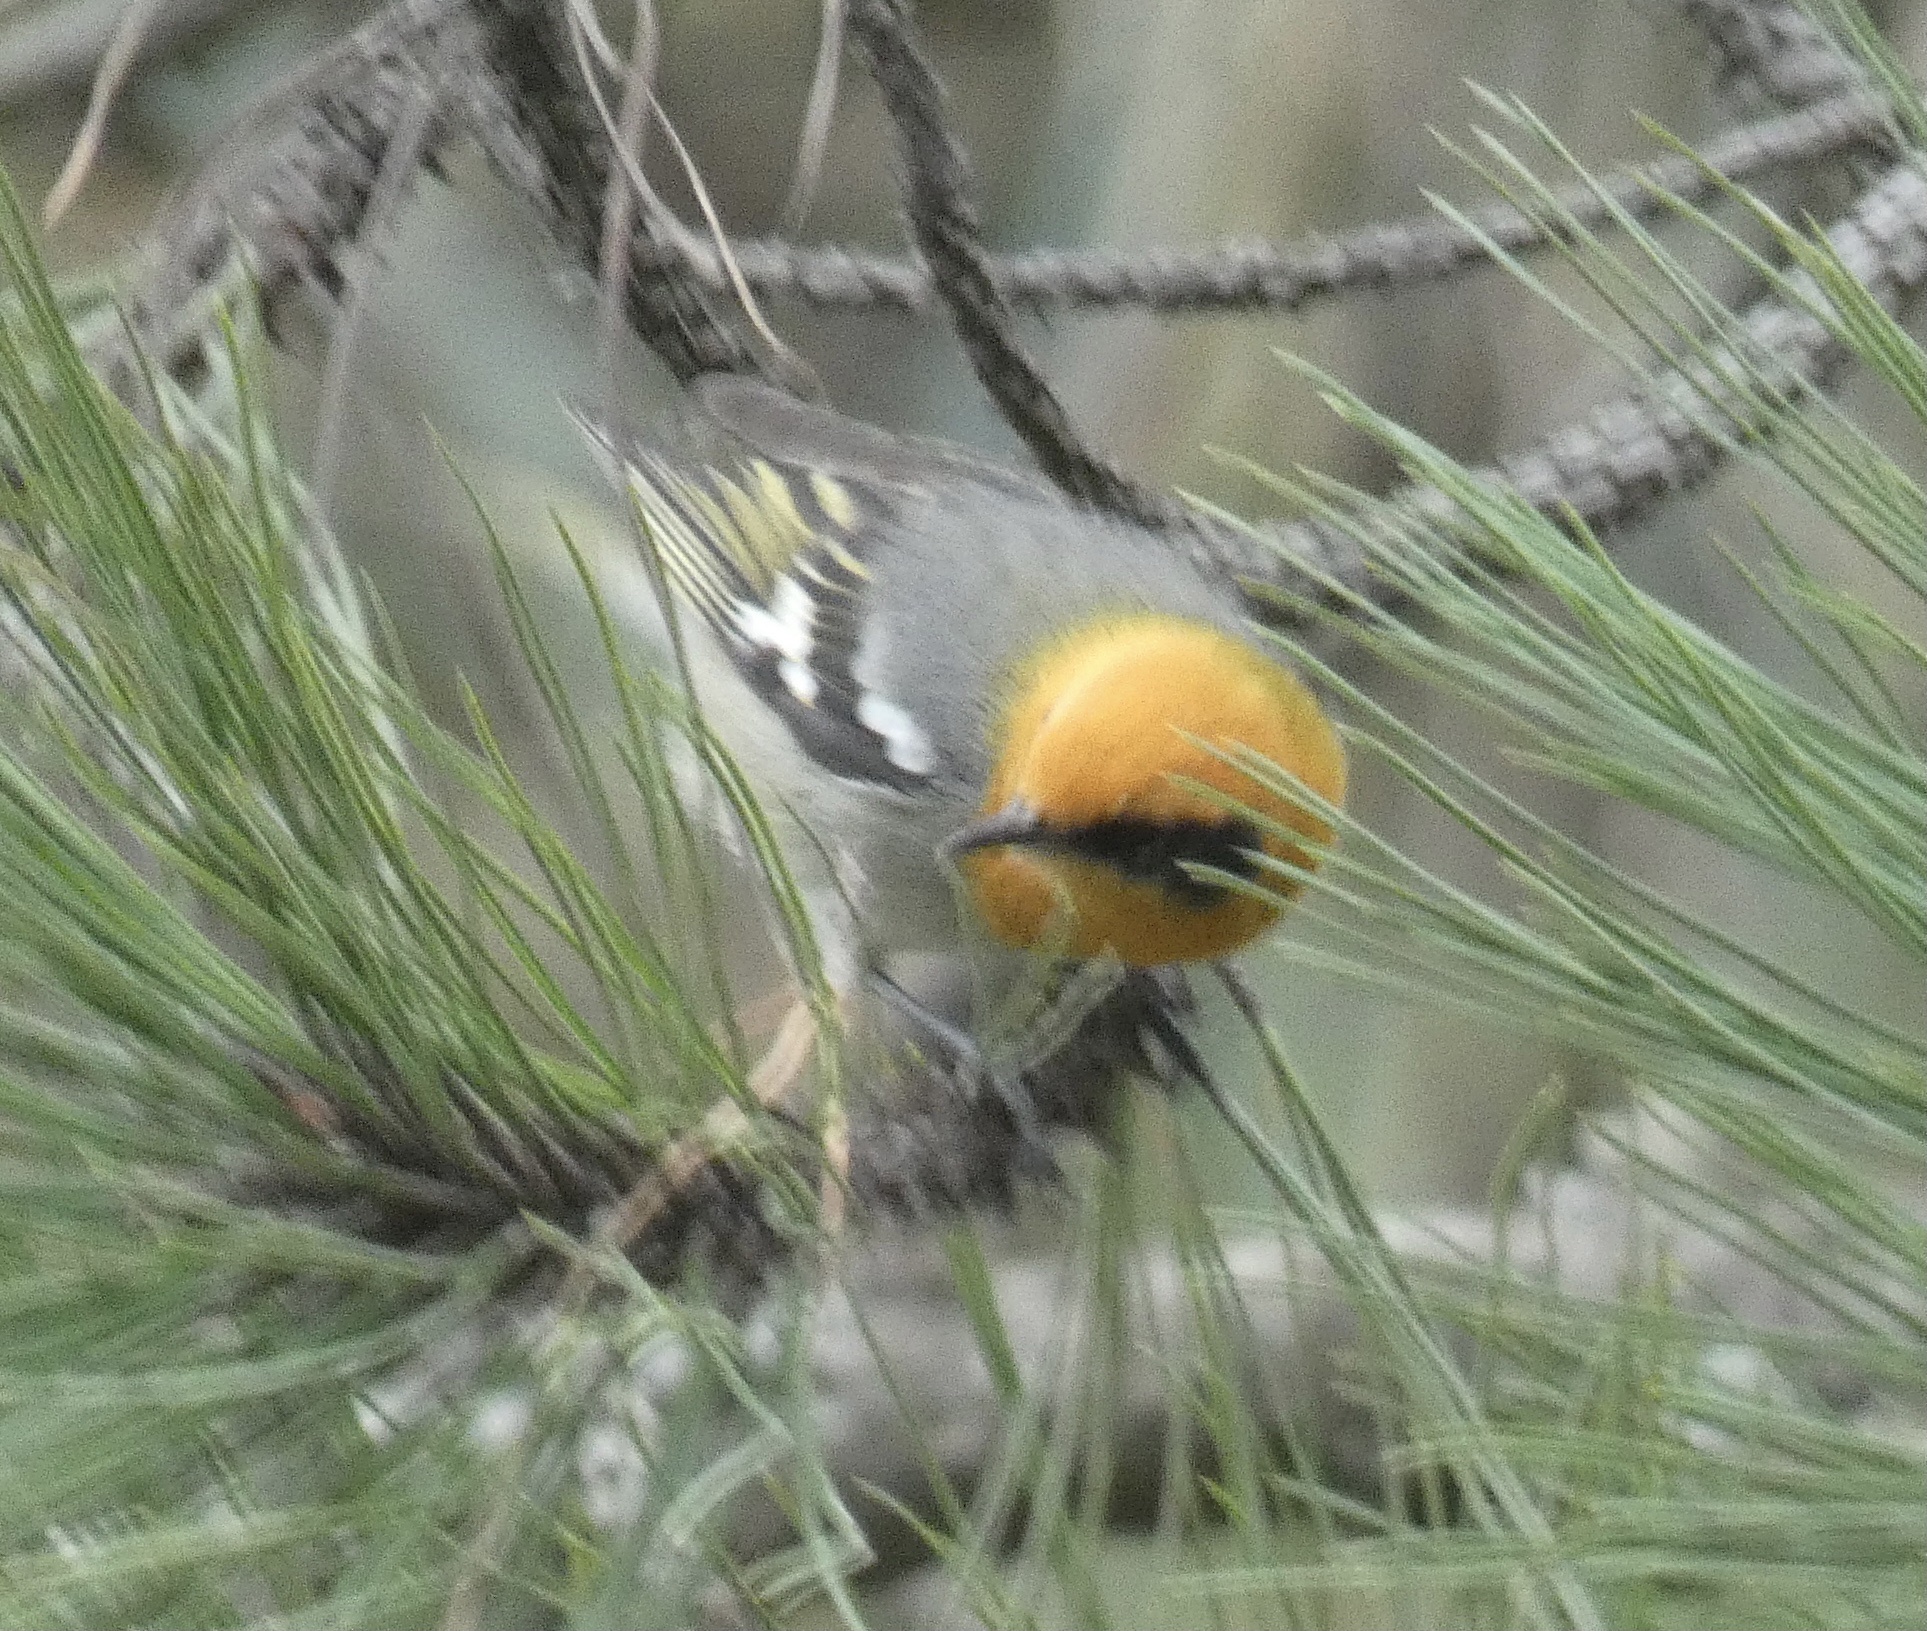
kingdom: Animalia
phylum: Chordata
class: Aves
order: Passeriformes
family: Peucedramidae
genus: Peucedramus
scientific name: Peucedramus taeniatus
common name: Olive warbler
